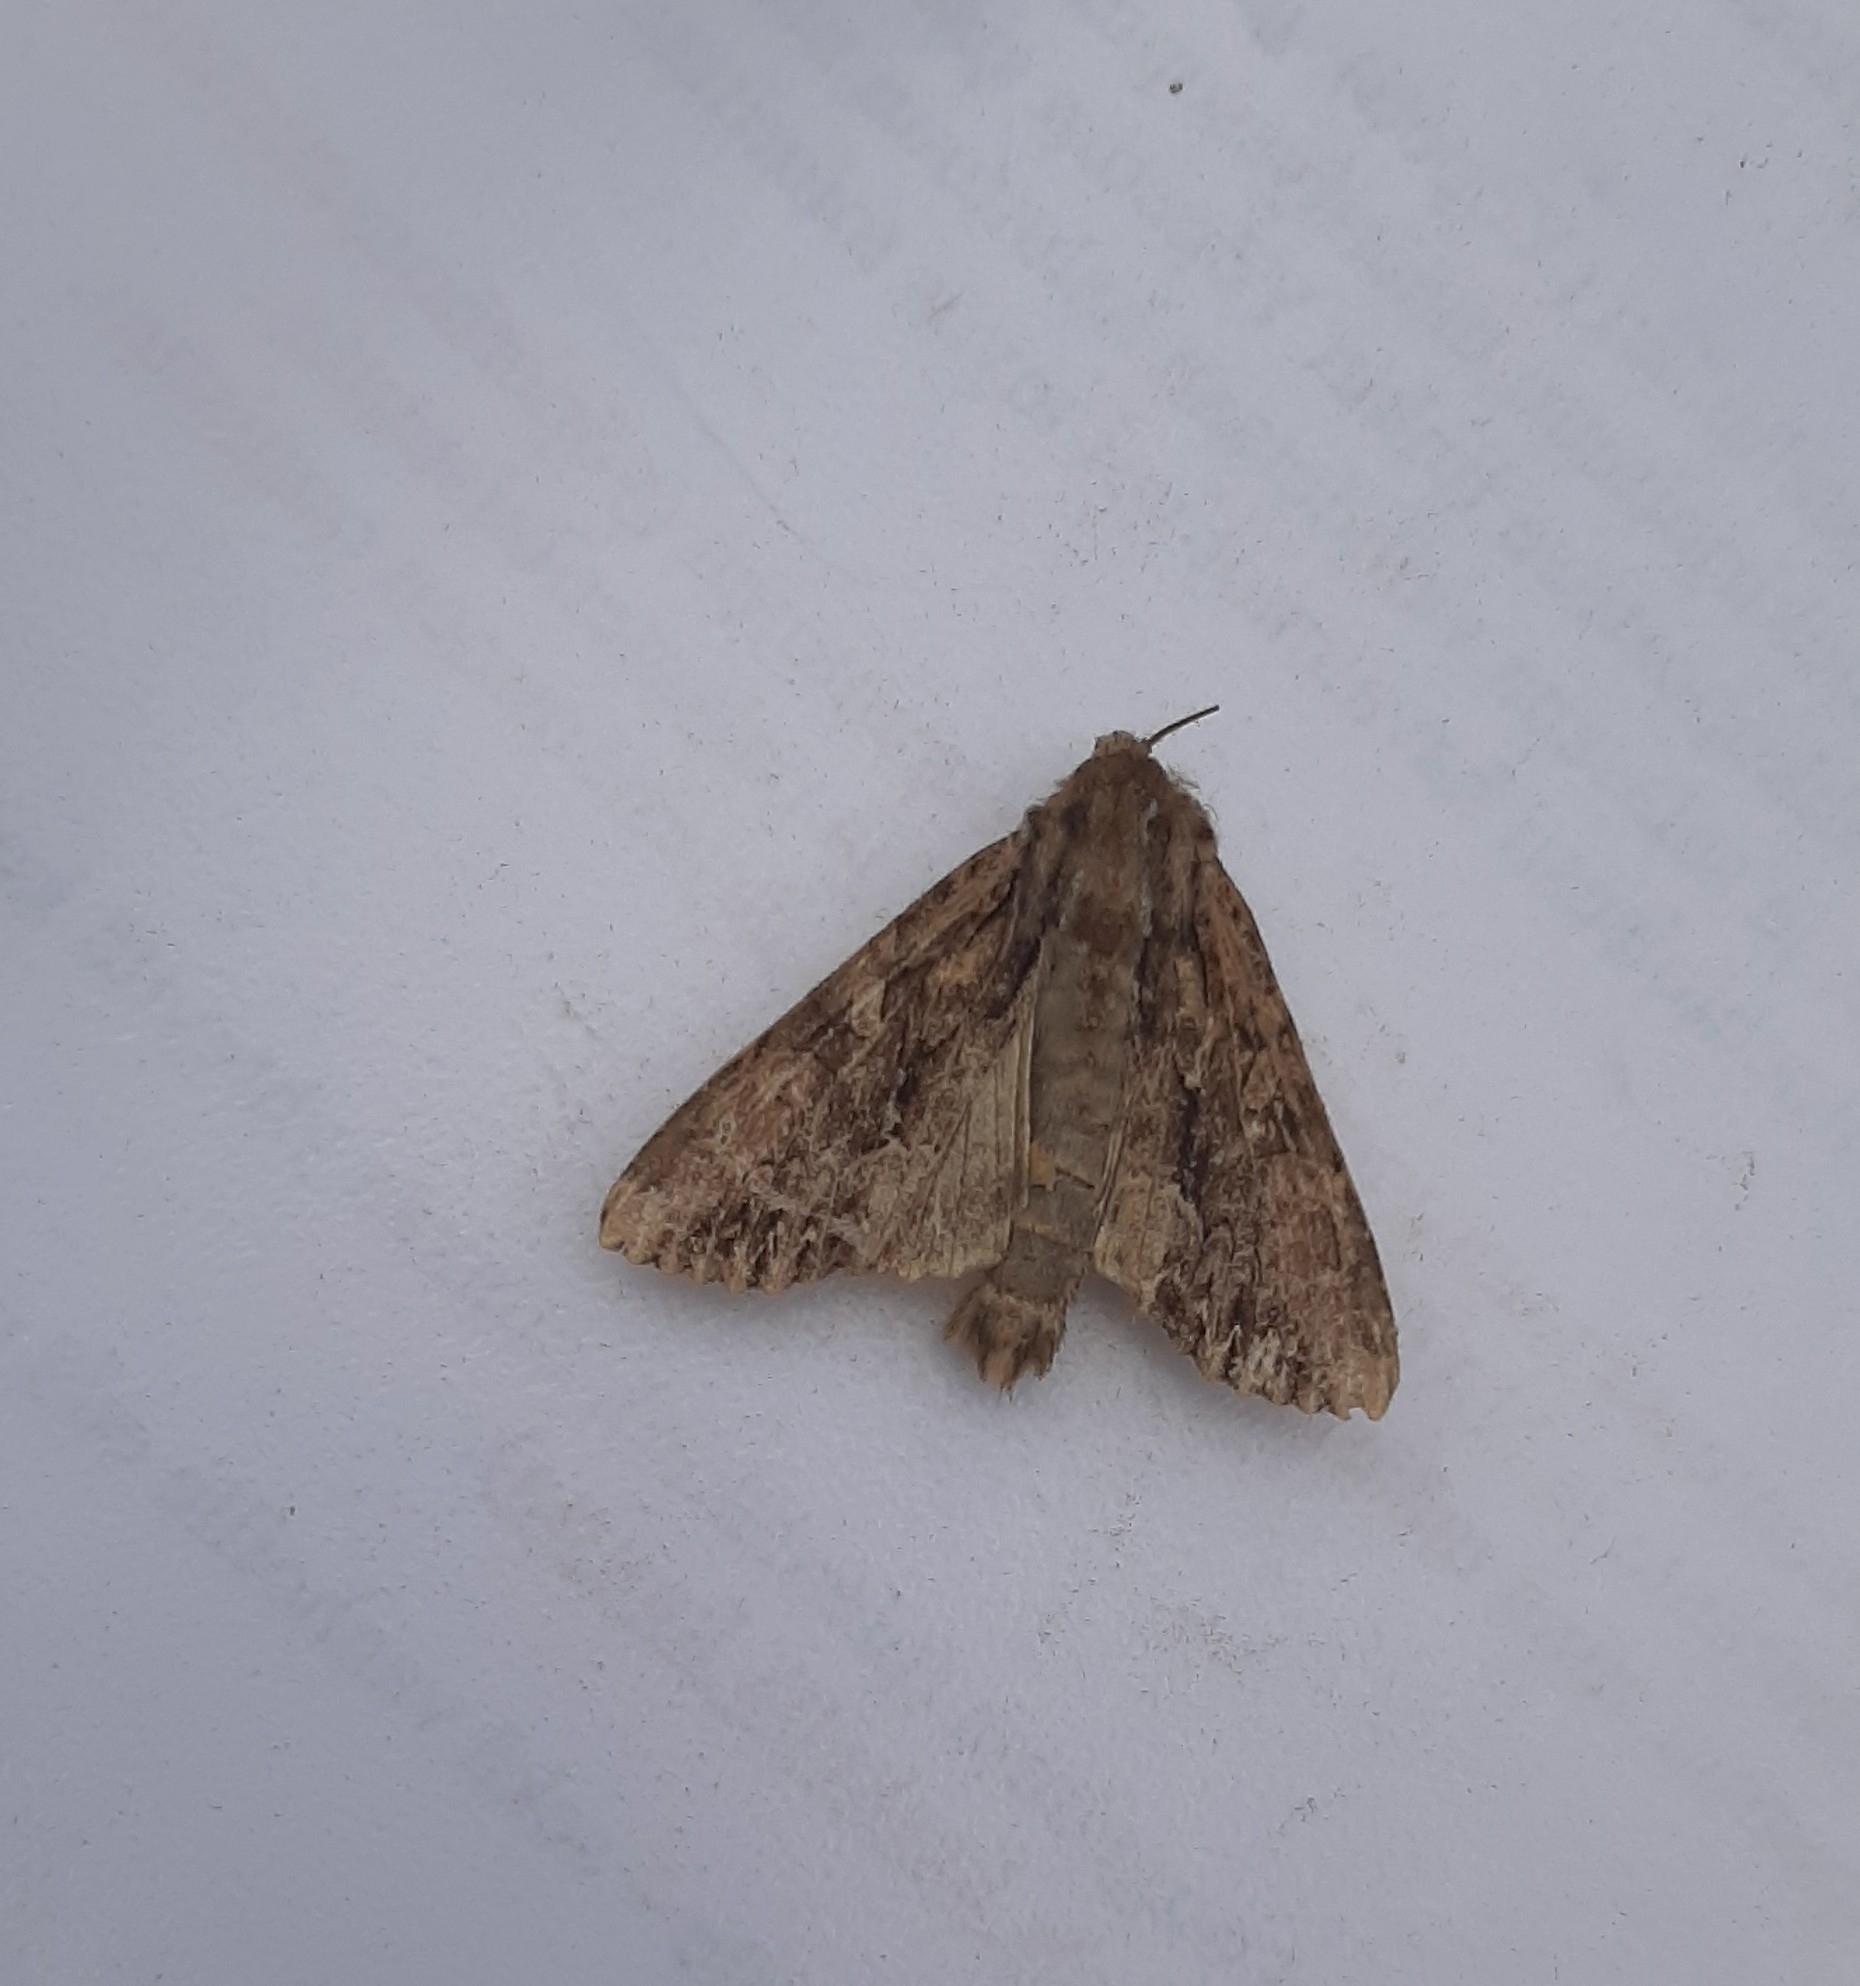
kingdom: Animalia
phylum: Arthropoda
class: Insecta
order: Lepidoptera
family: Noctuidae
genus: Apamea
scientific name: Apamea monoglypha
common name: Dark arches
